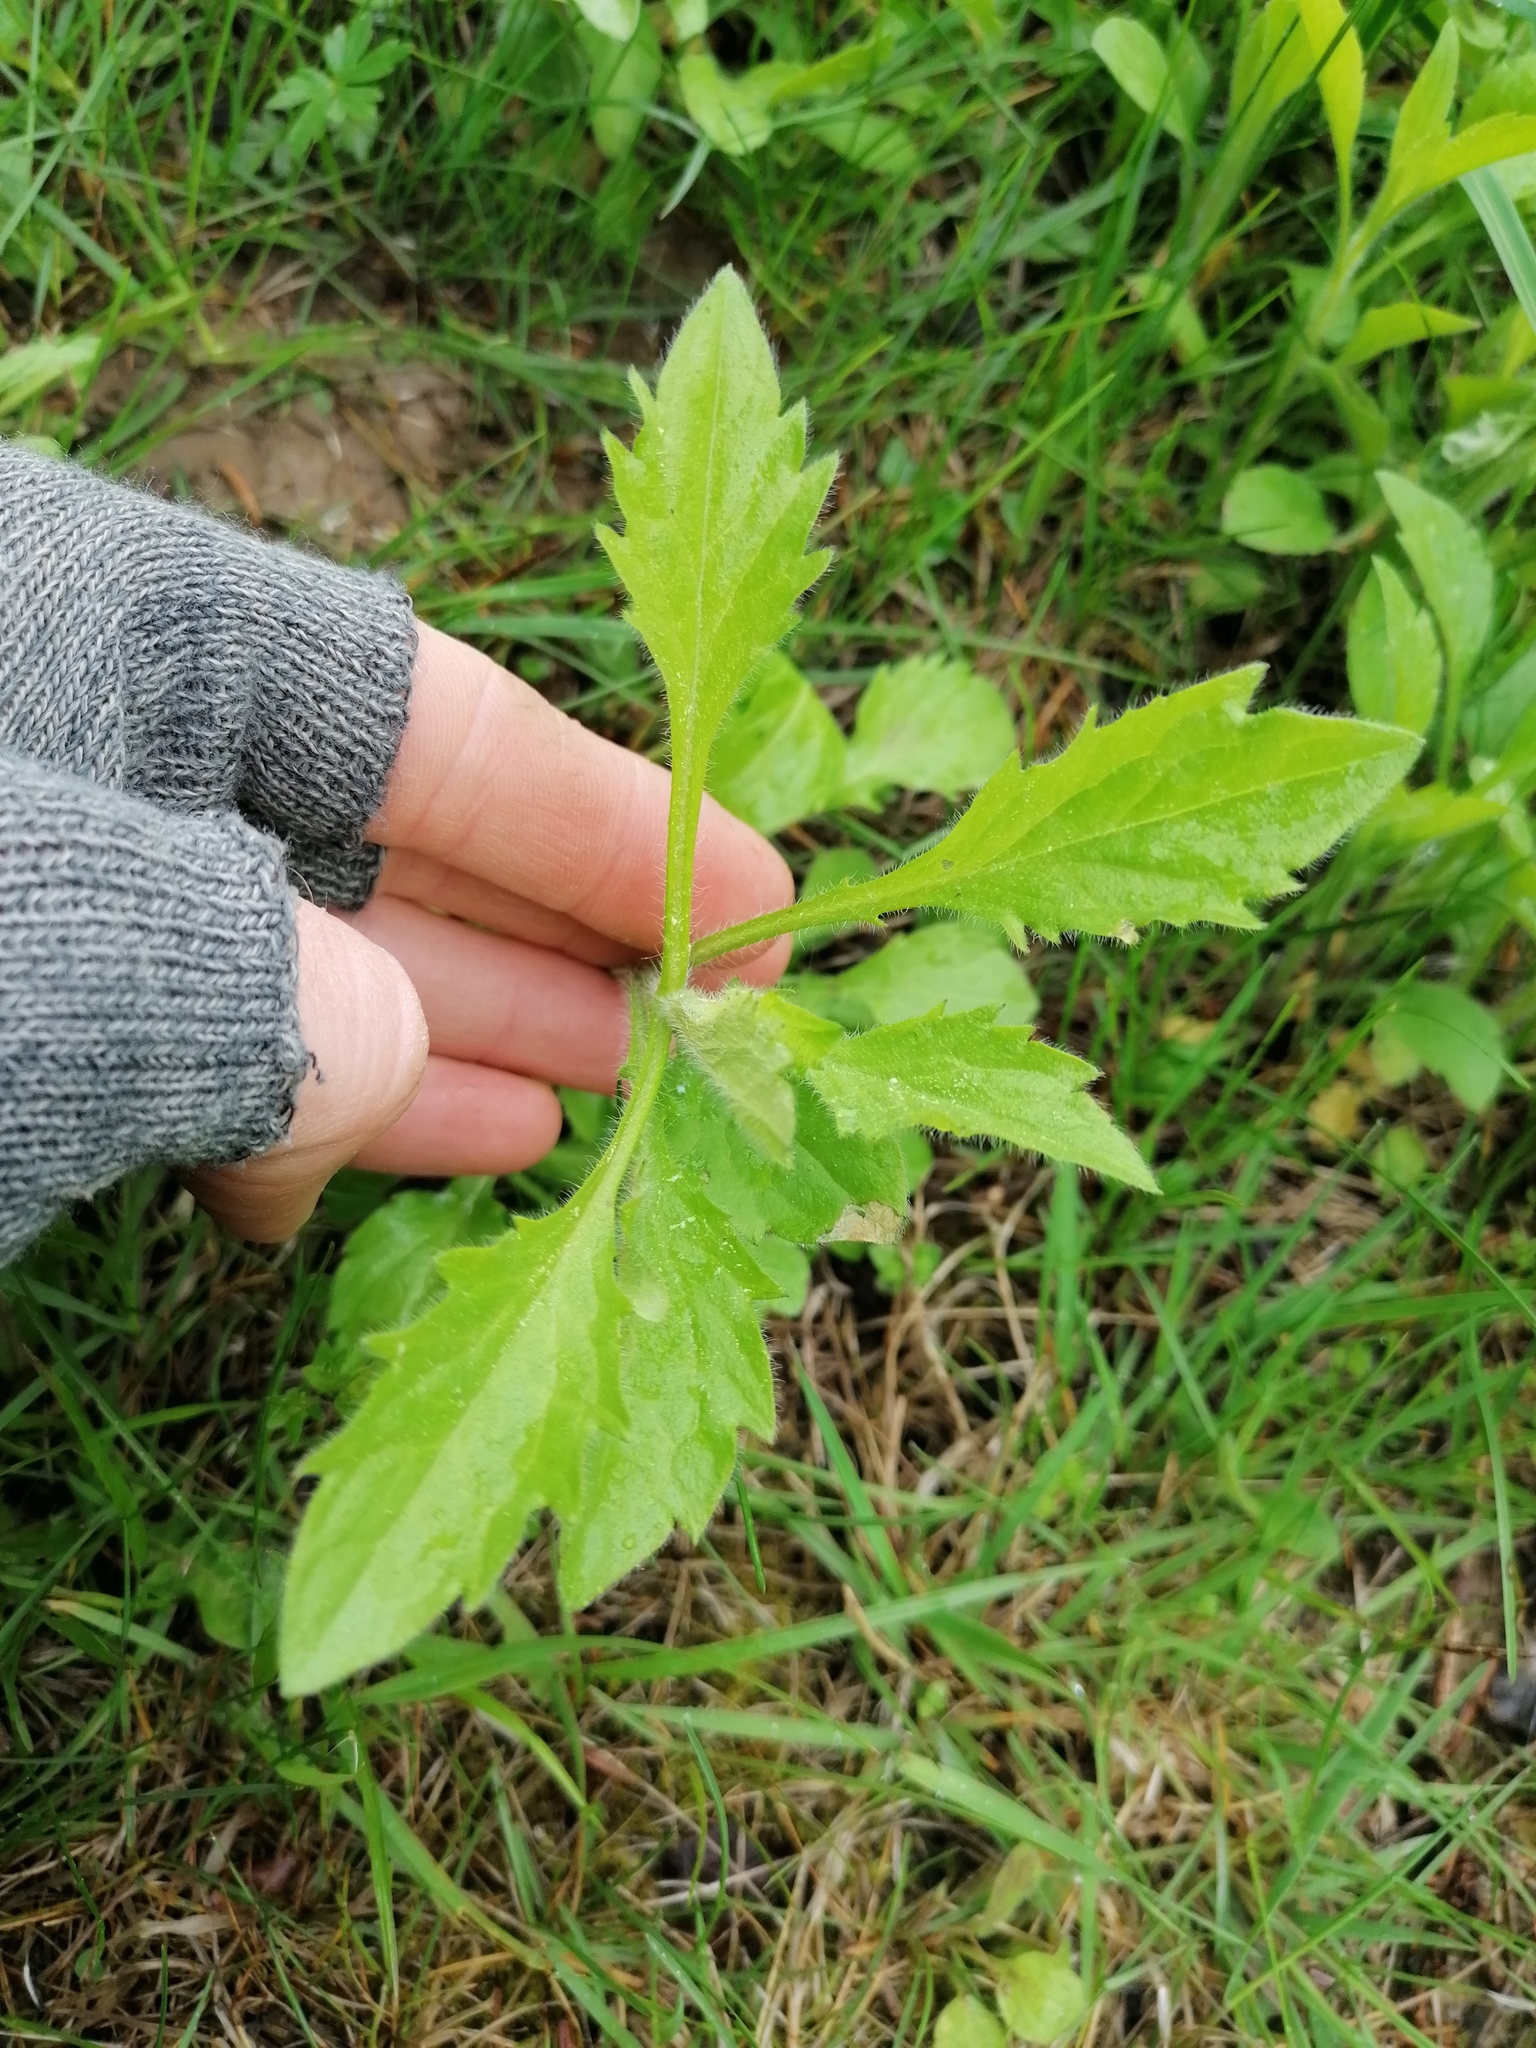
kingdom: Plantae
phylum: Tracheophyta
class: Magnoliopsida
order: Asterales
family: Asteraceae
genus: Erigeron
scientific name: Erigeron annuus
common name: Tall fleabane
